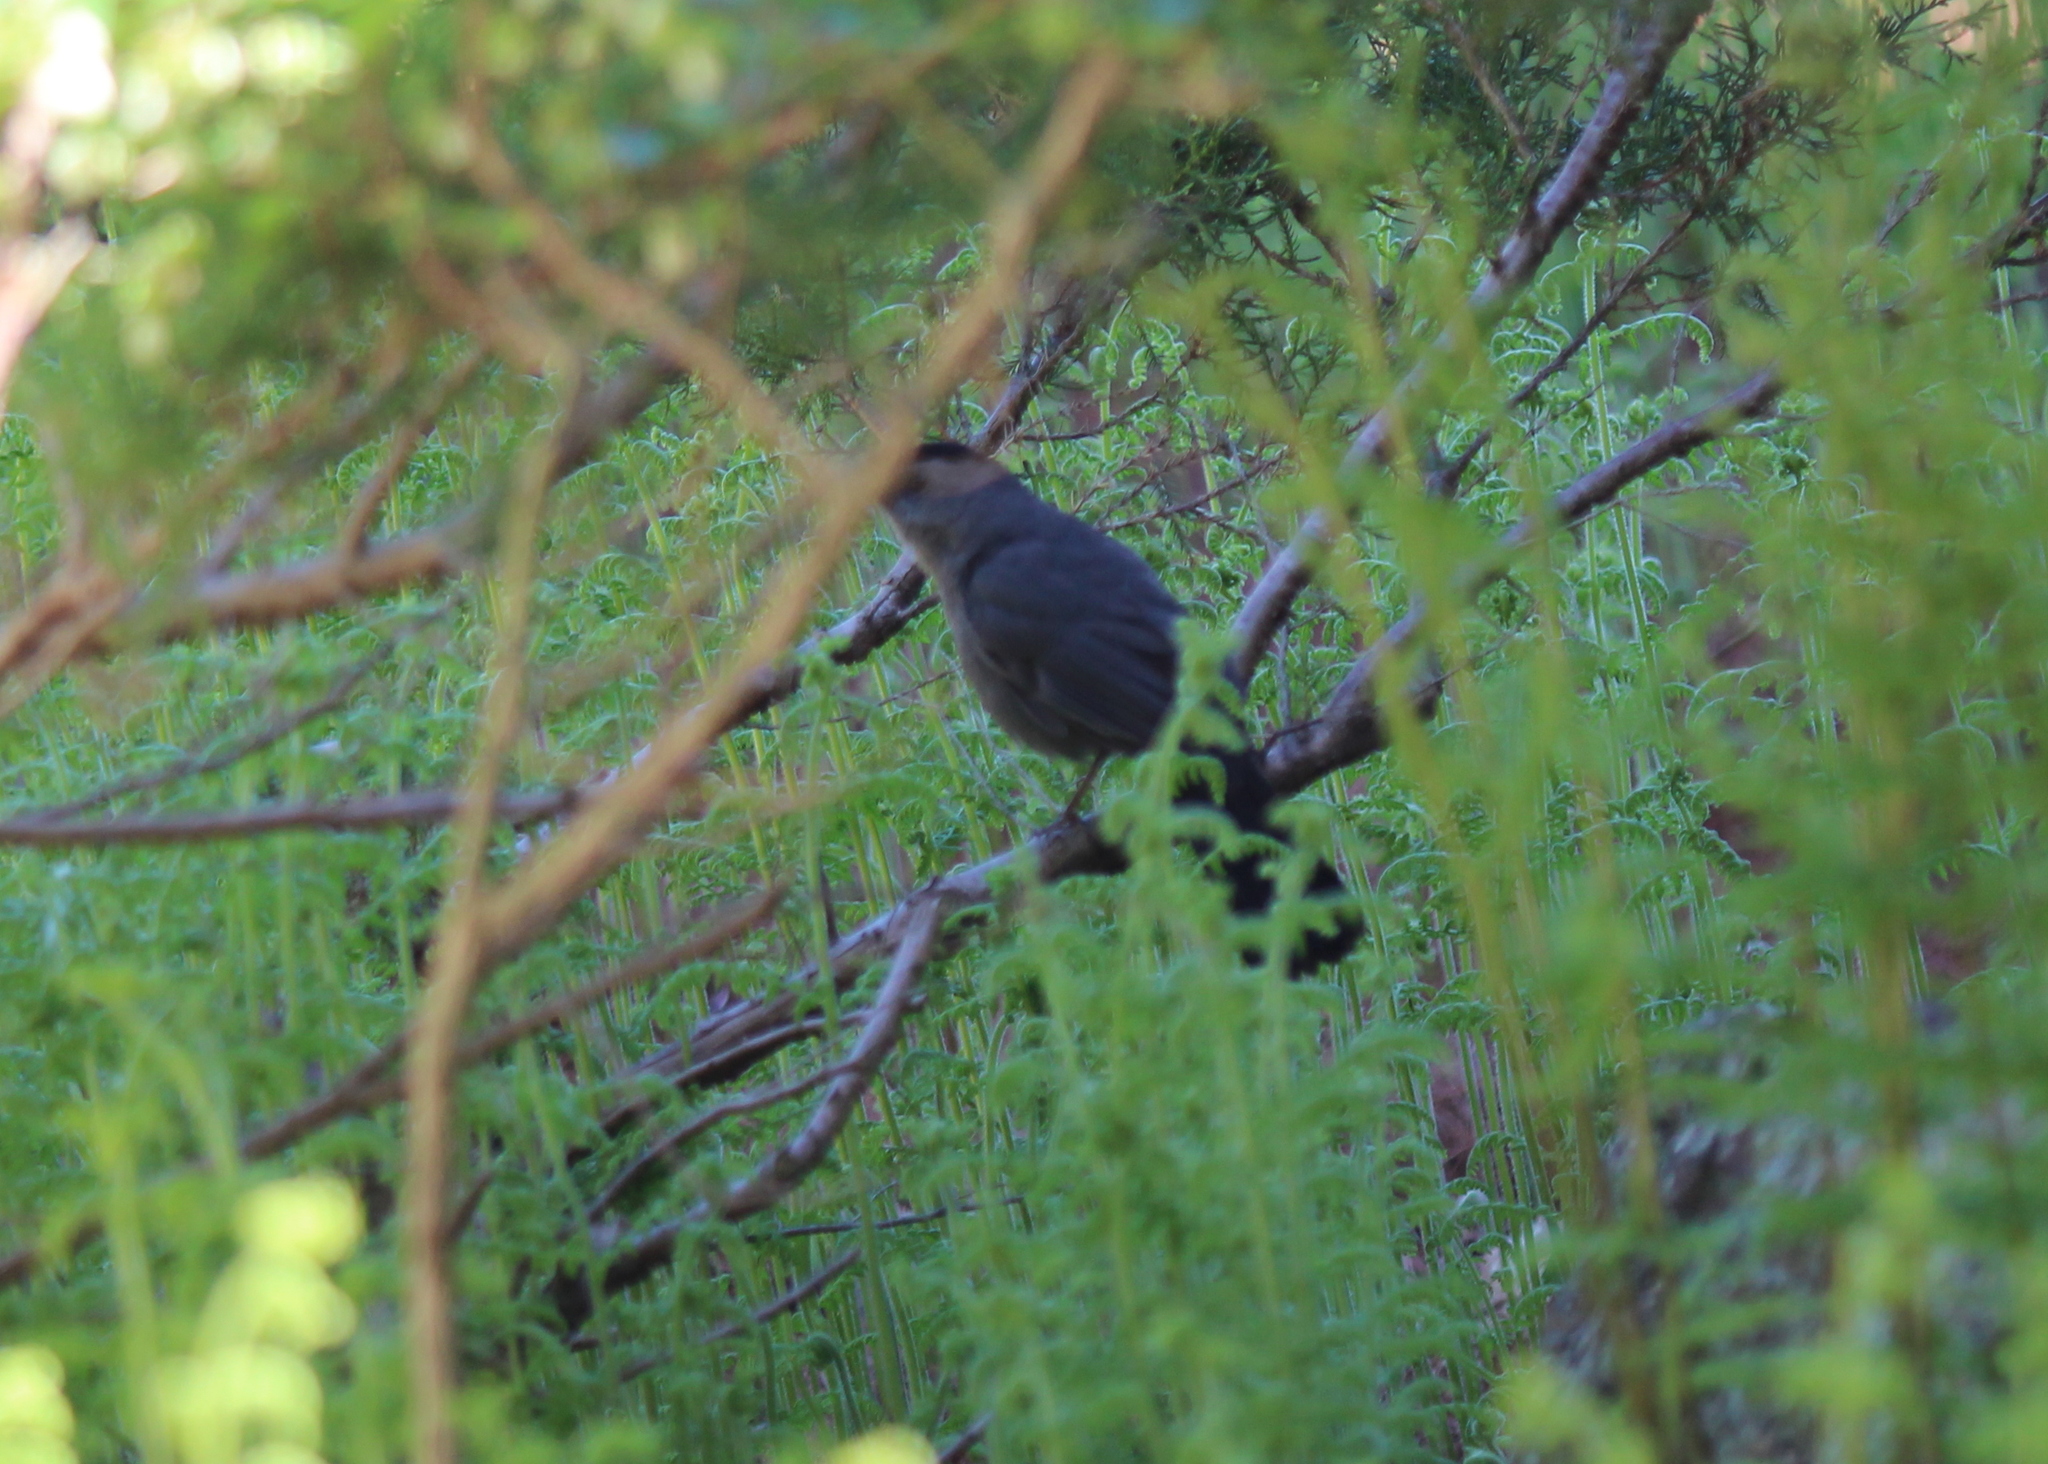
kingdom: Animalia
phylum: Chordata
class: Aves
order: Passeriformes
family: Mimidae
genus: Dumetella
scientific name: Dumetella carolinensis
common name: Gray catbird
